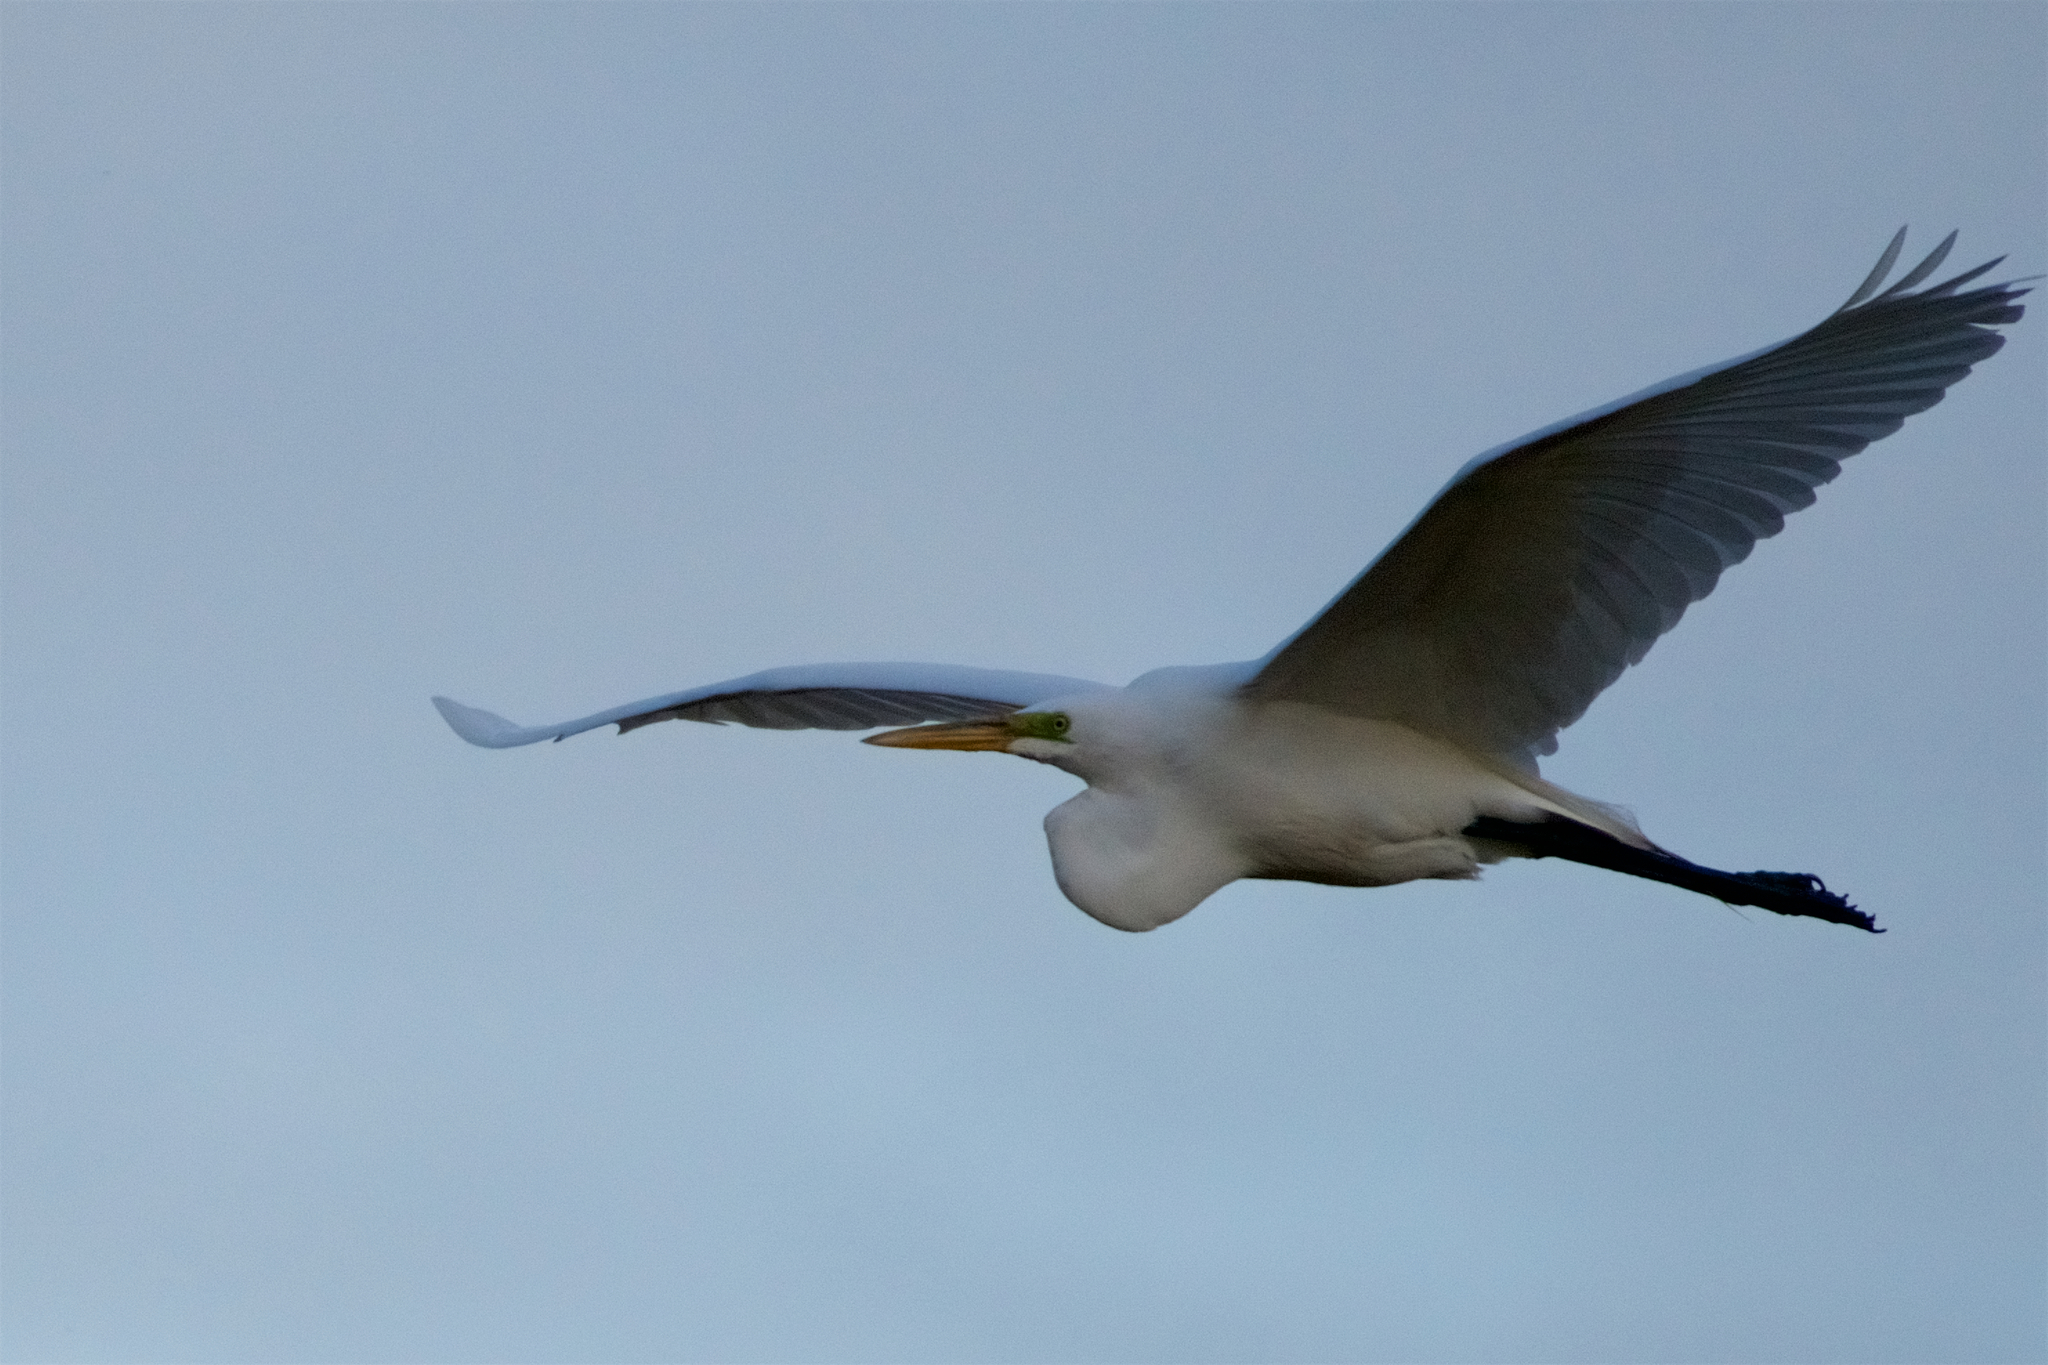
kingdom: Animalia
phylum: Chordata
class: Aves
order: Pelecaniformes
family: Ardeidae
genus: Ardea
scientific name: Ardea alba
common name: Great egret
